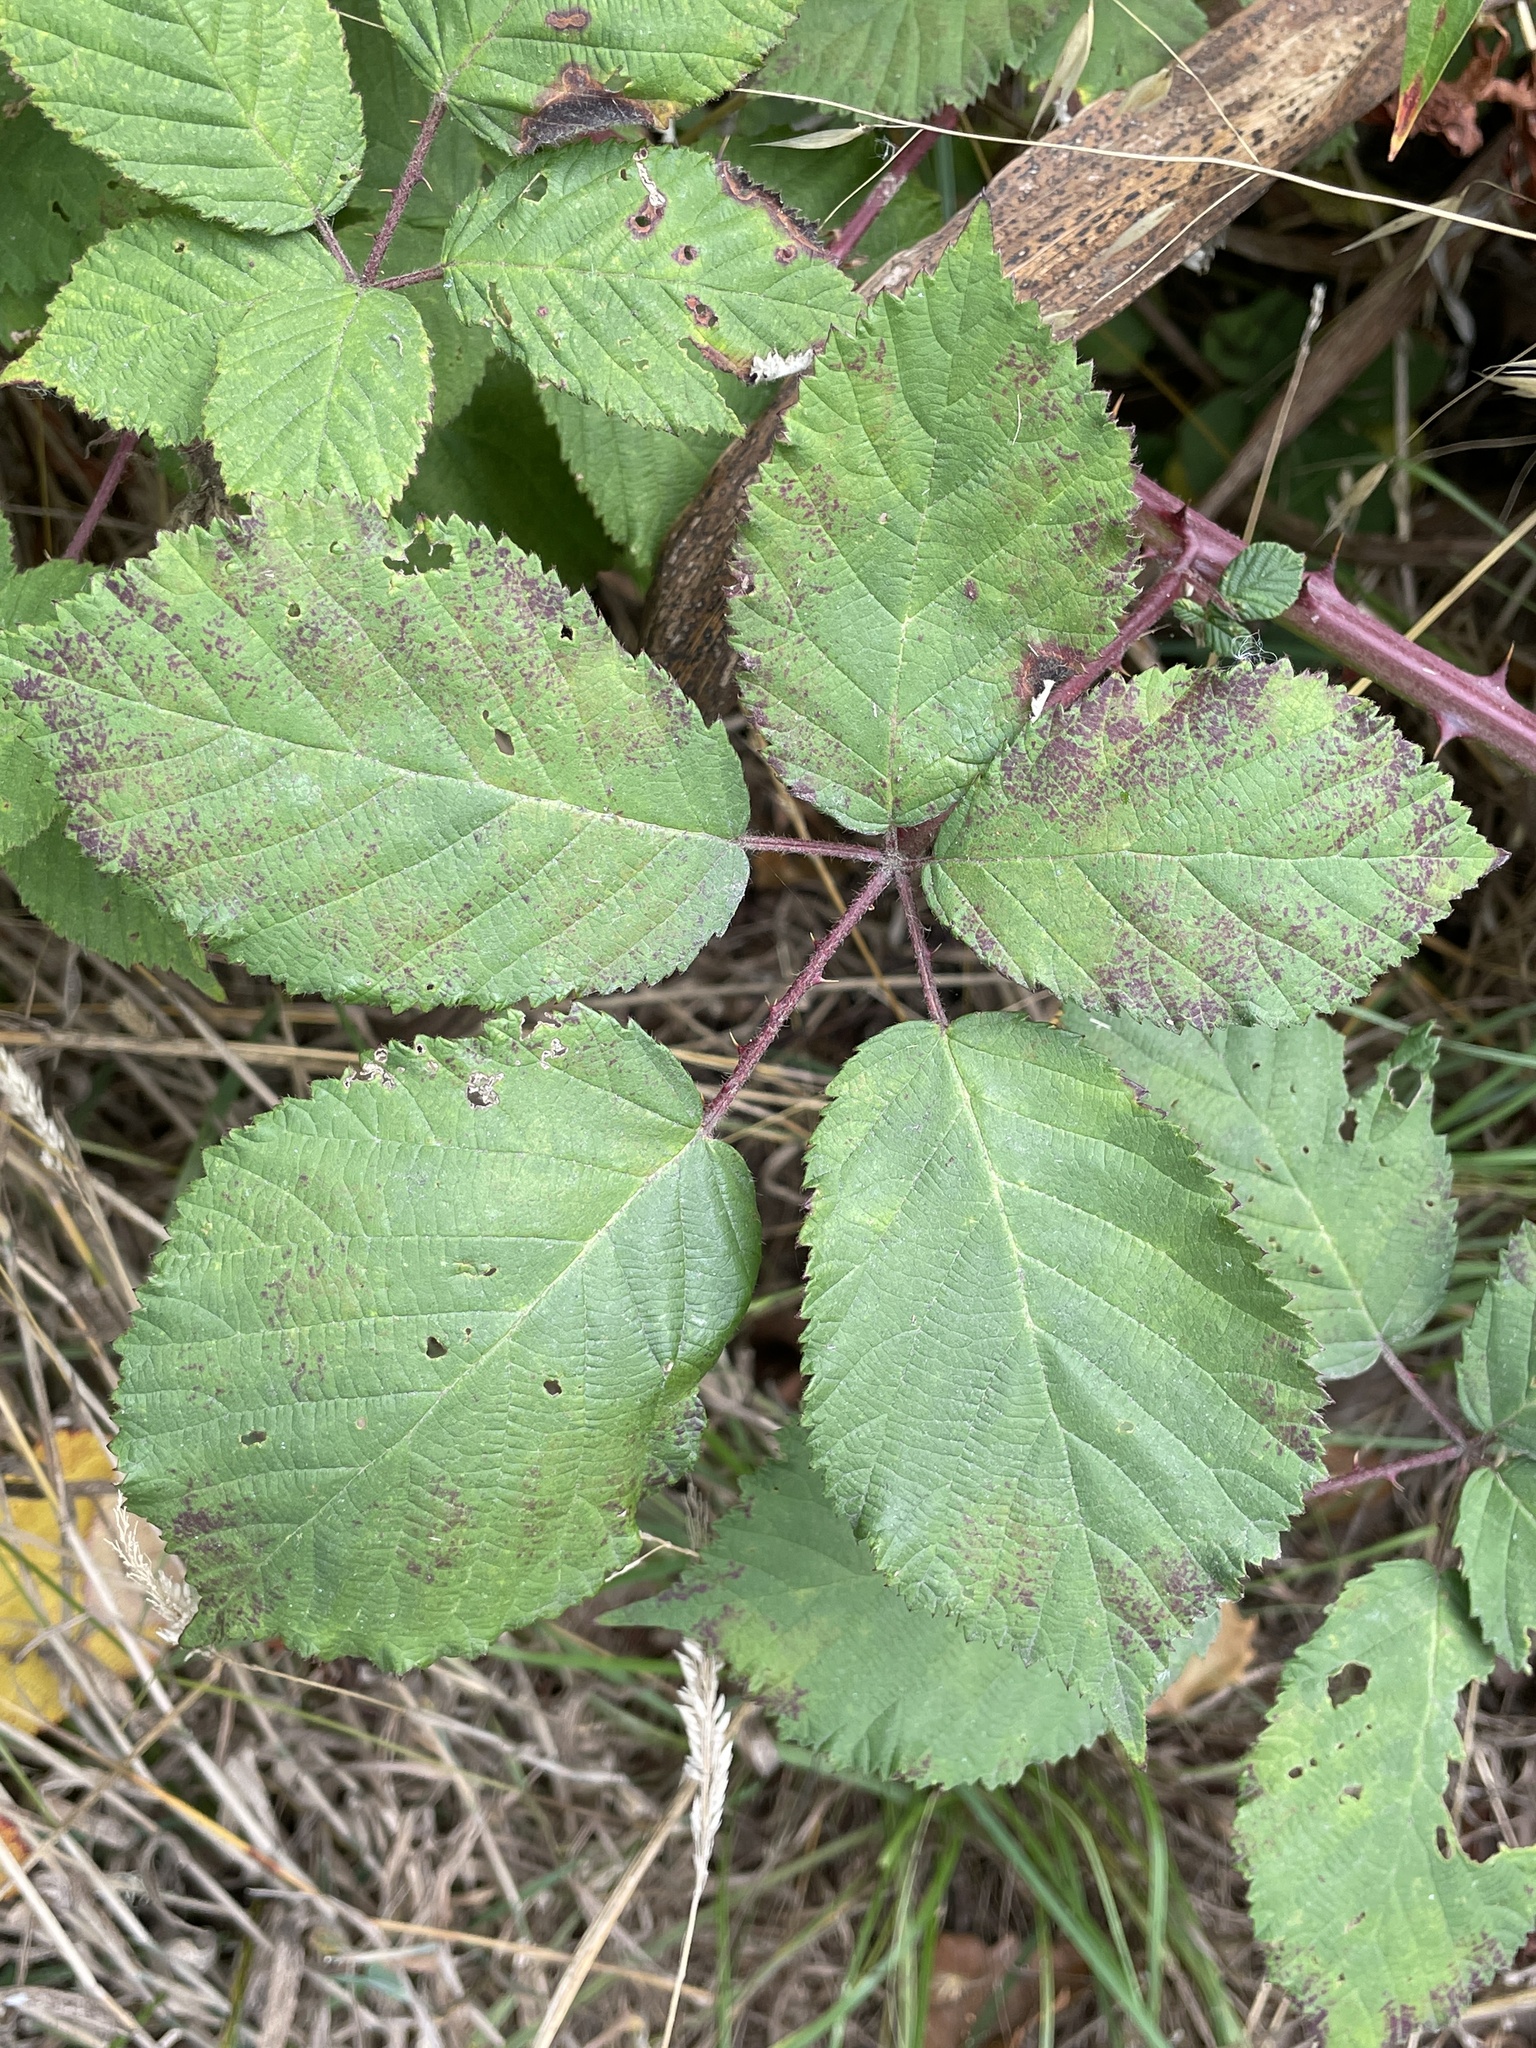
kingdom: Plantae
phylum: Tracheophyta
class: Magnoliopsida
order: Rosales
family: Rosaceae
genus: Rubus
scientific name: Rubus armeniacus
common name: Himalayan blackberry
